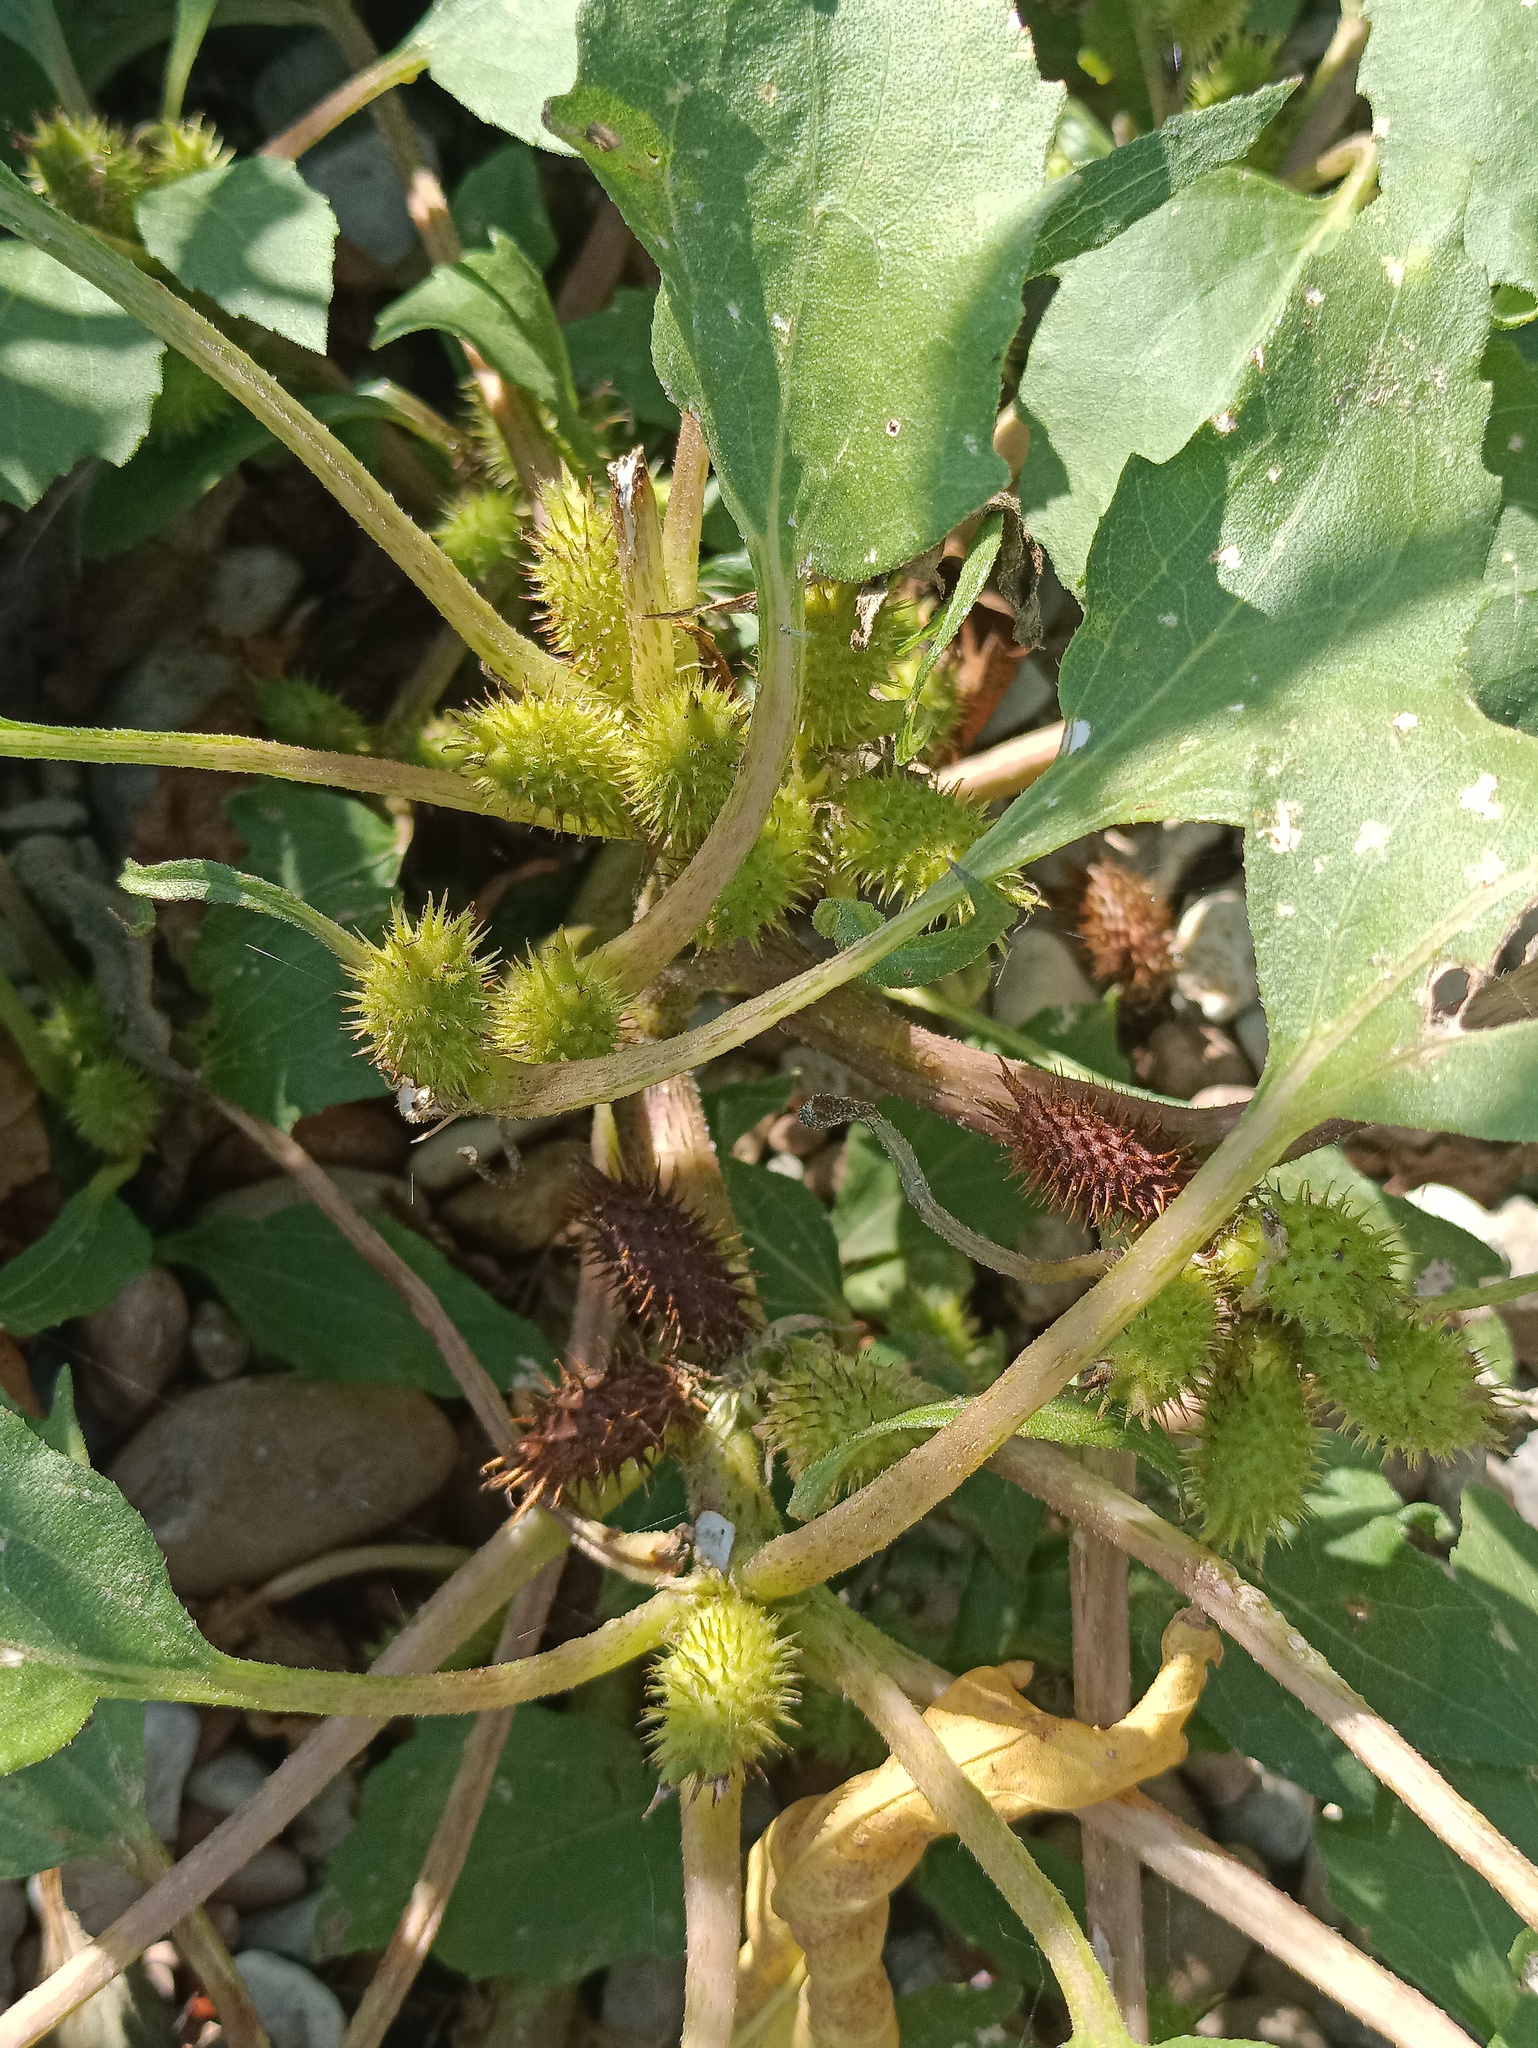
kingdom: Plantae
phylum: Tracheophyta
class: Magnoliopsida
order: Asterales
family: Asteraceae
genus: Xanthium
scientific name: Xanthium orientale
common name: Californian burr
